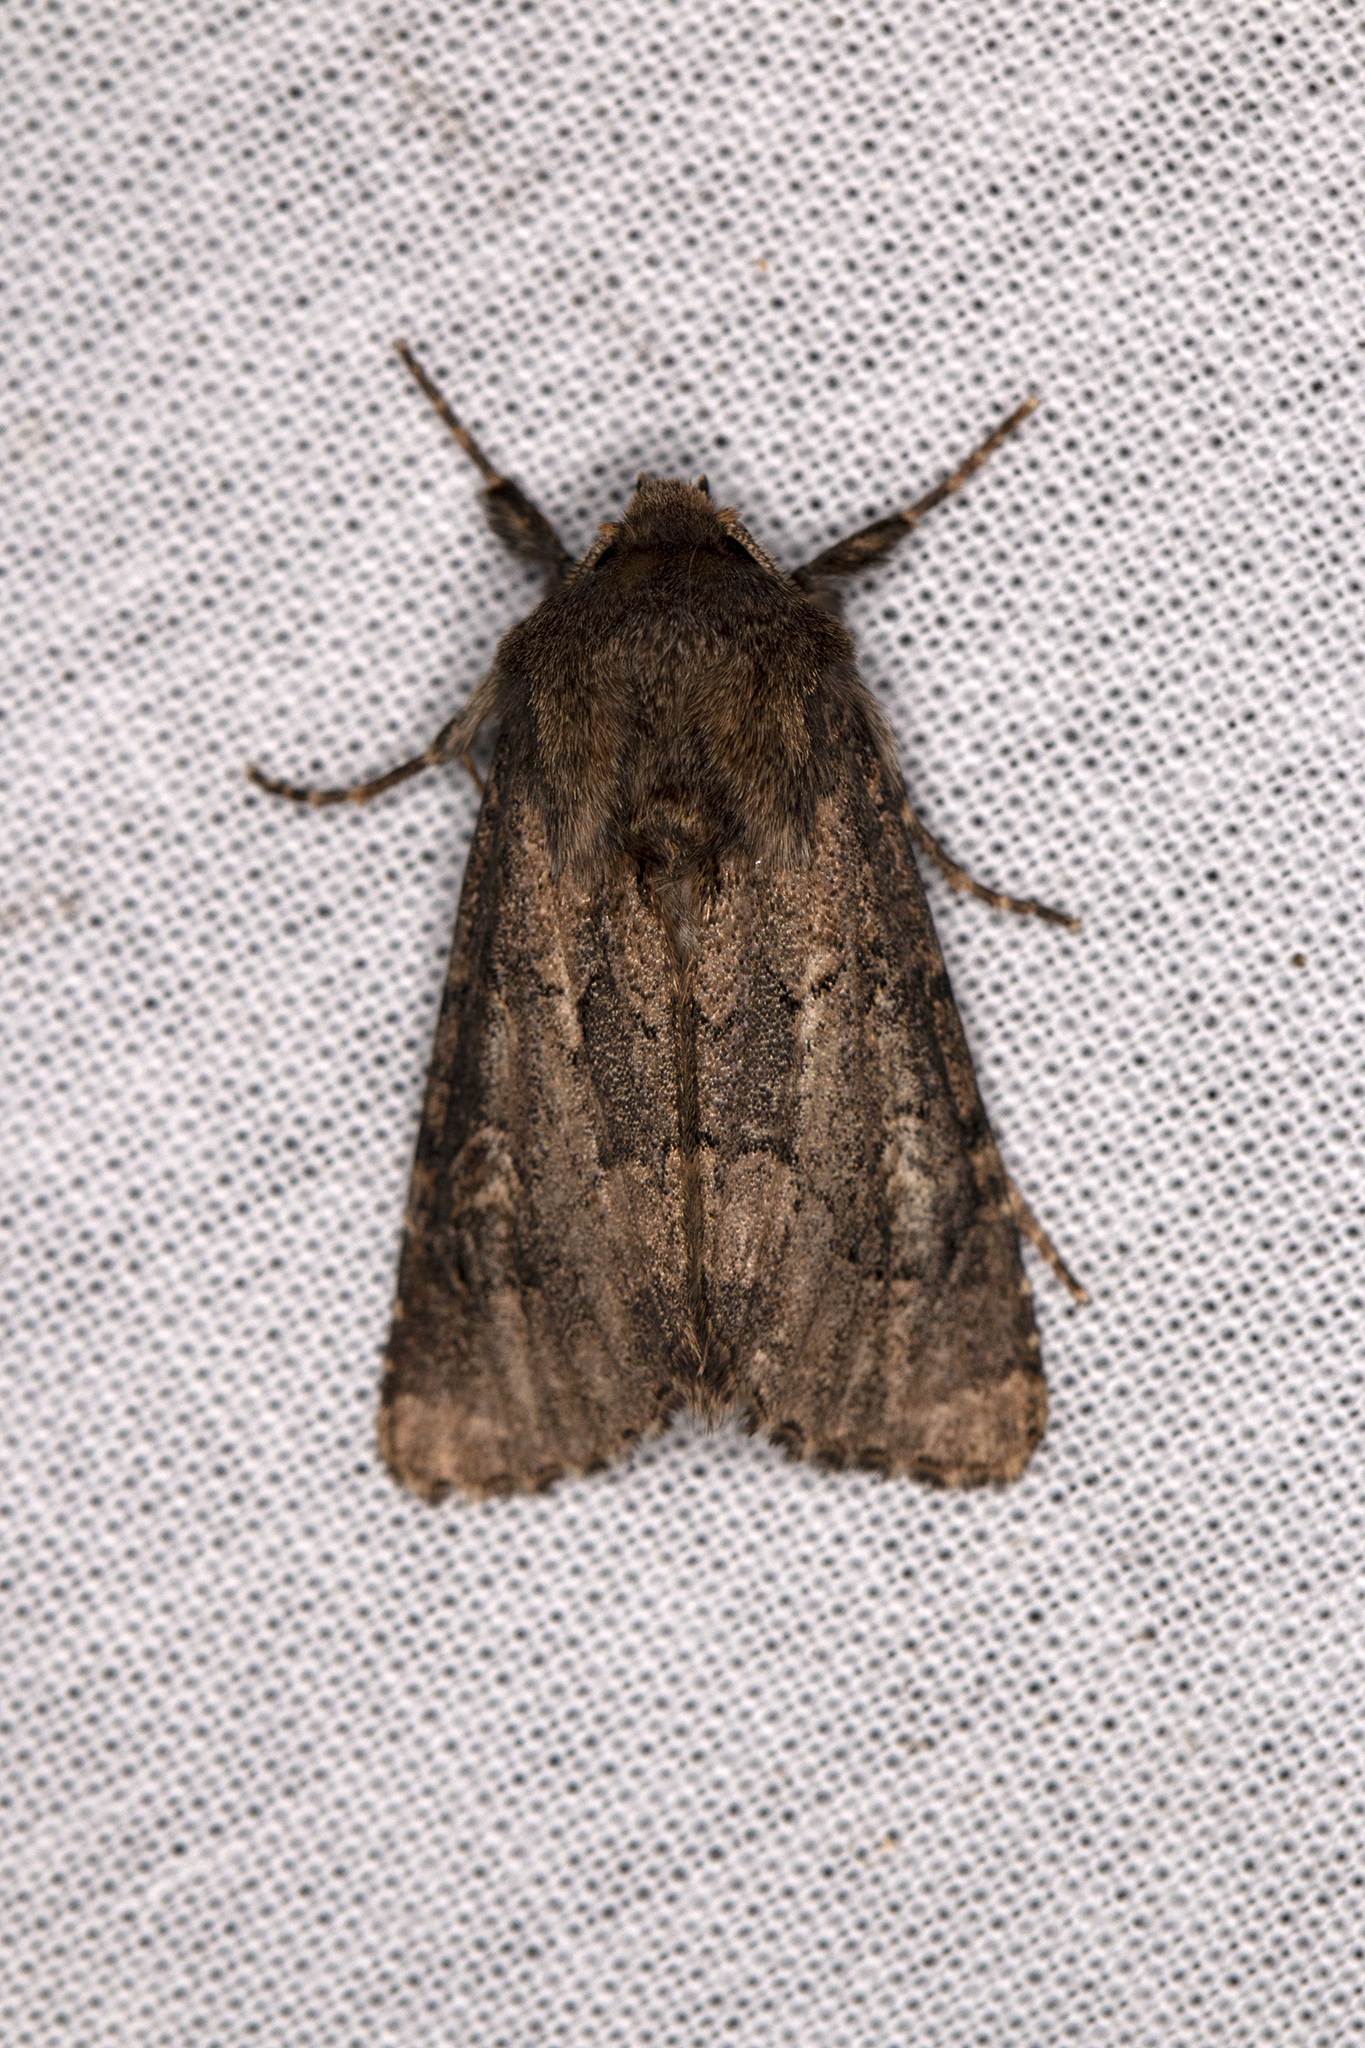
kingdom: Animalia
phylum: Arthropoda
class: Insecta
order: Lepidoptera
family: Noctuidae
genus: Luperina
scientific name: Luperina testacea
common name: Flounced rustic
